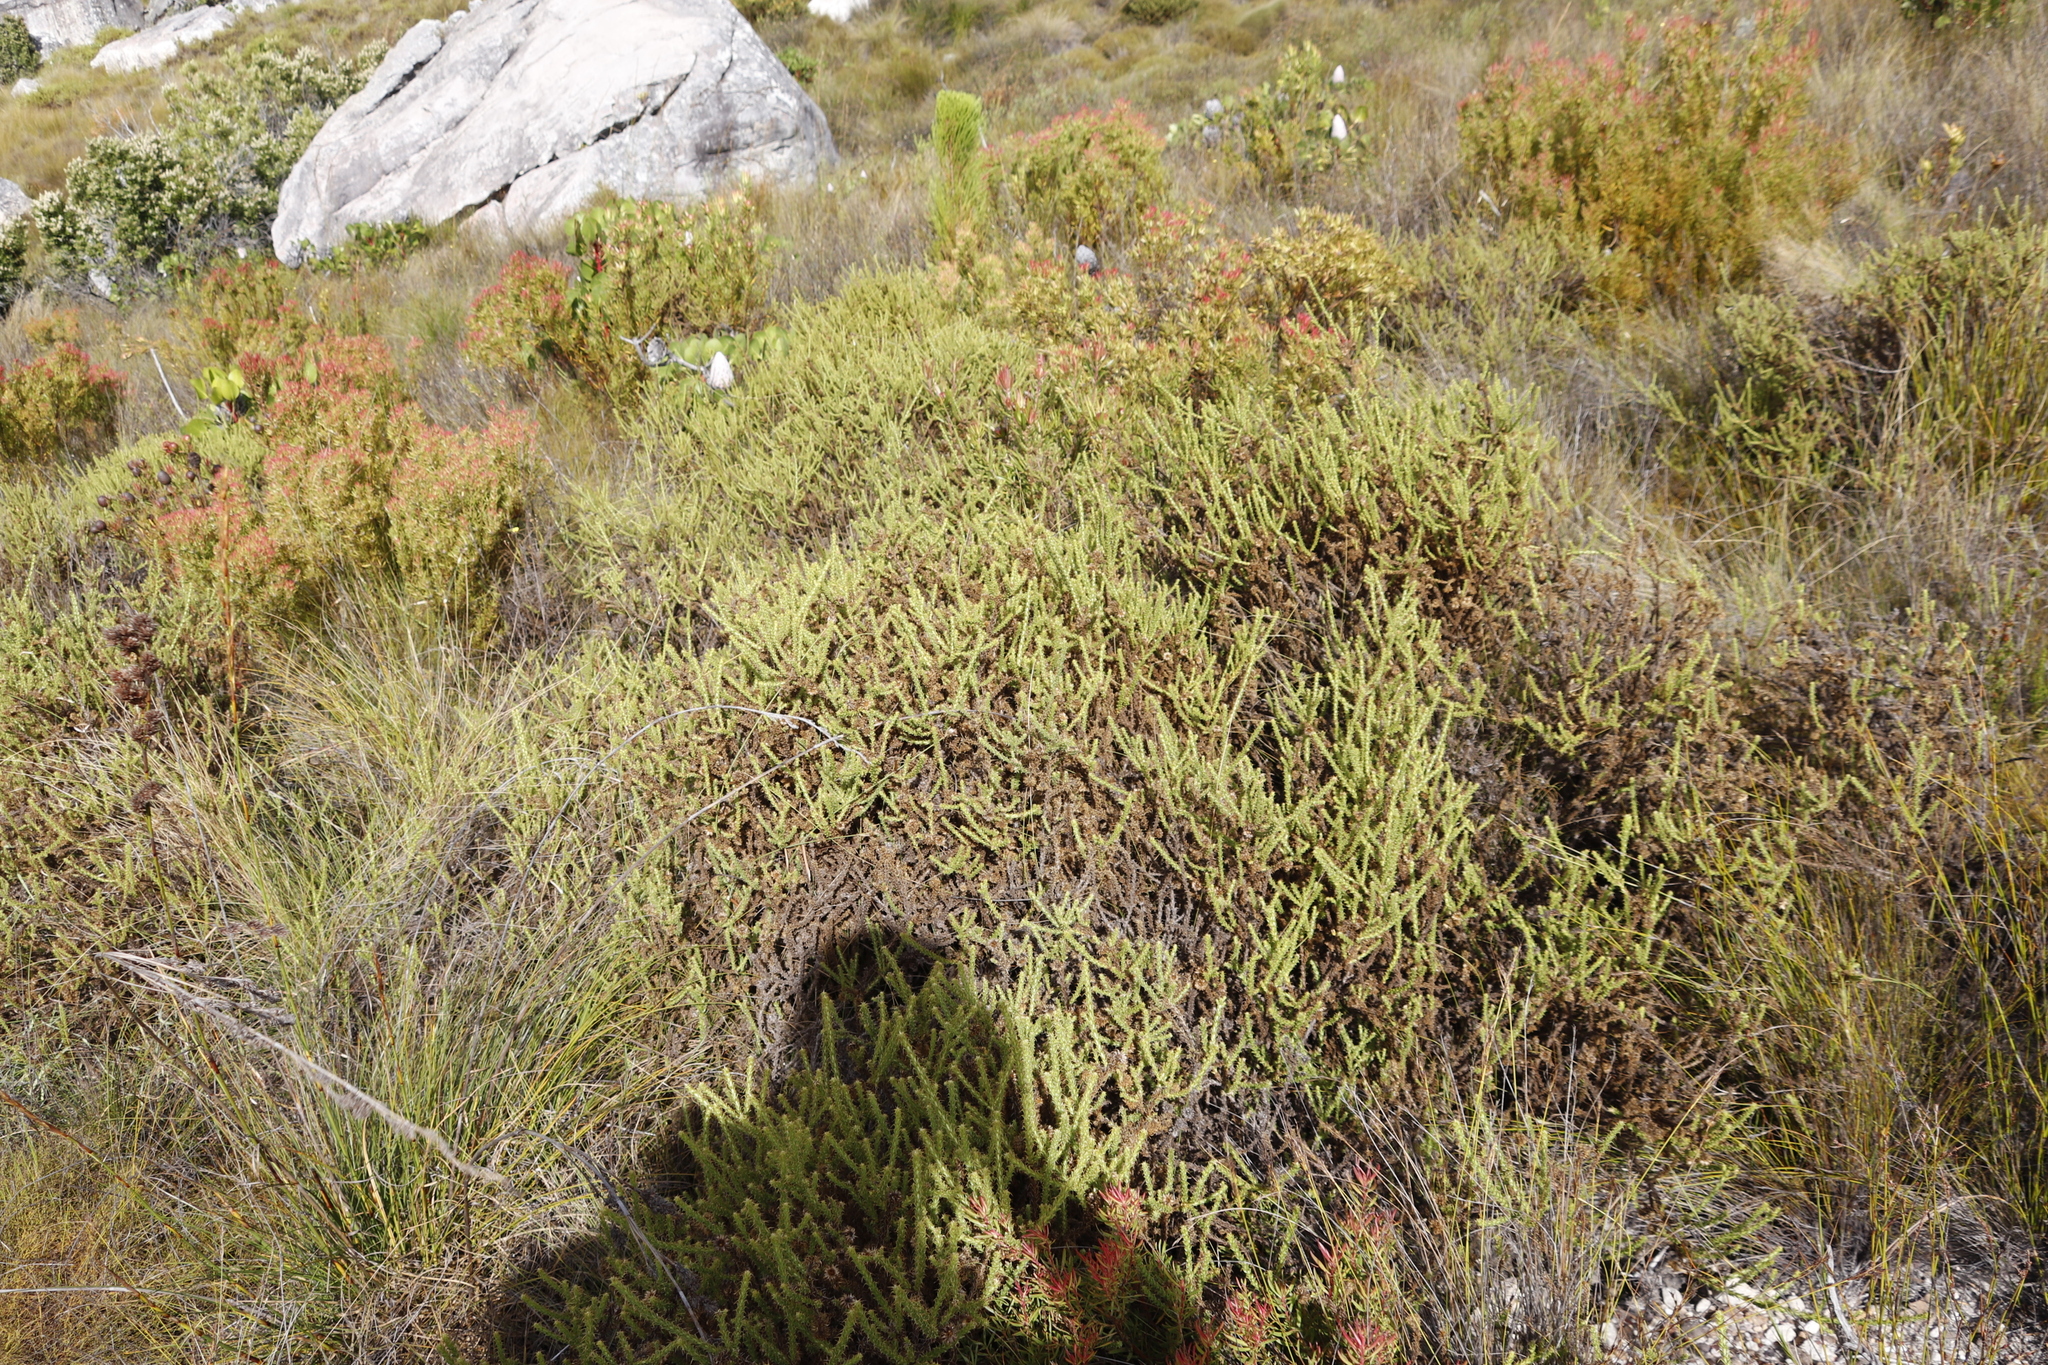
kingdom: Plantae
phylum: Tracheophyta
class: Magnoliopsida
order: Asterales
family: Asteraceae
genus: Cullumia
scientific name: Cullumia reticulata
